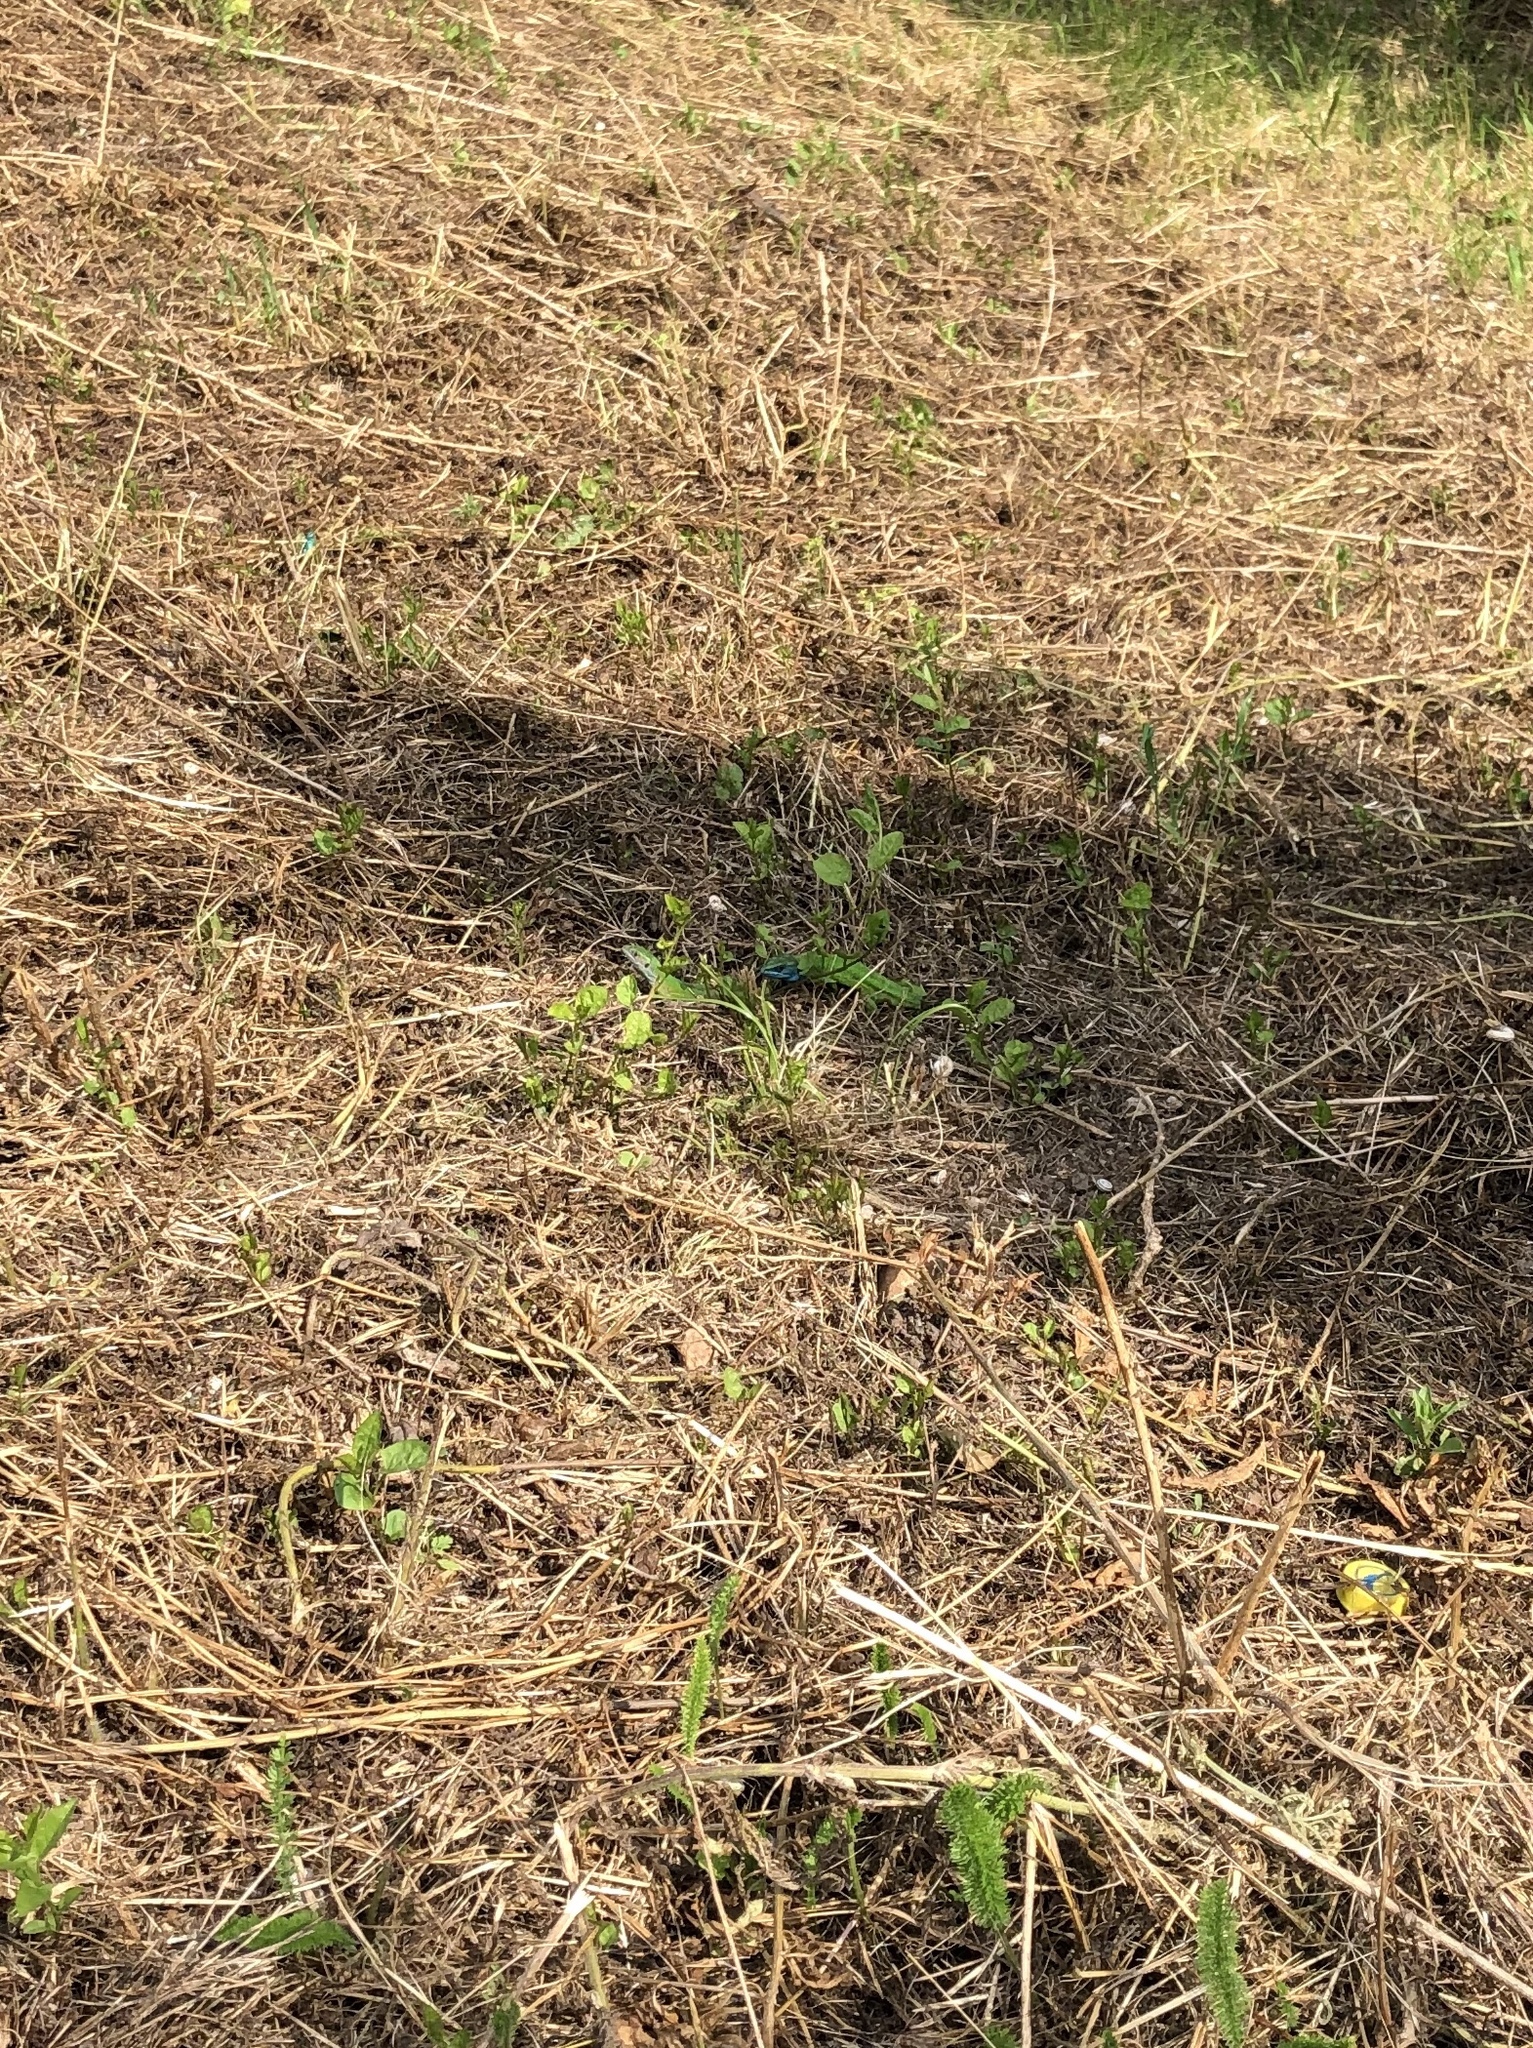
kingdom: Animalia
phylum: Chordata
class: Squamata
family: Lacertidae
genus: Lacerta
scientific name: Lacerta viridis
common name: European green lizard
